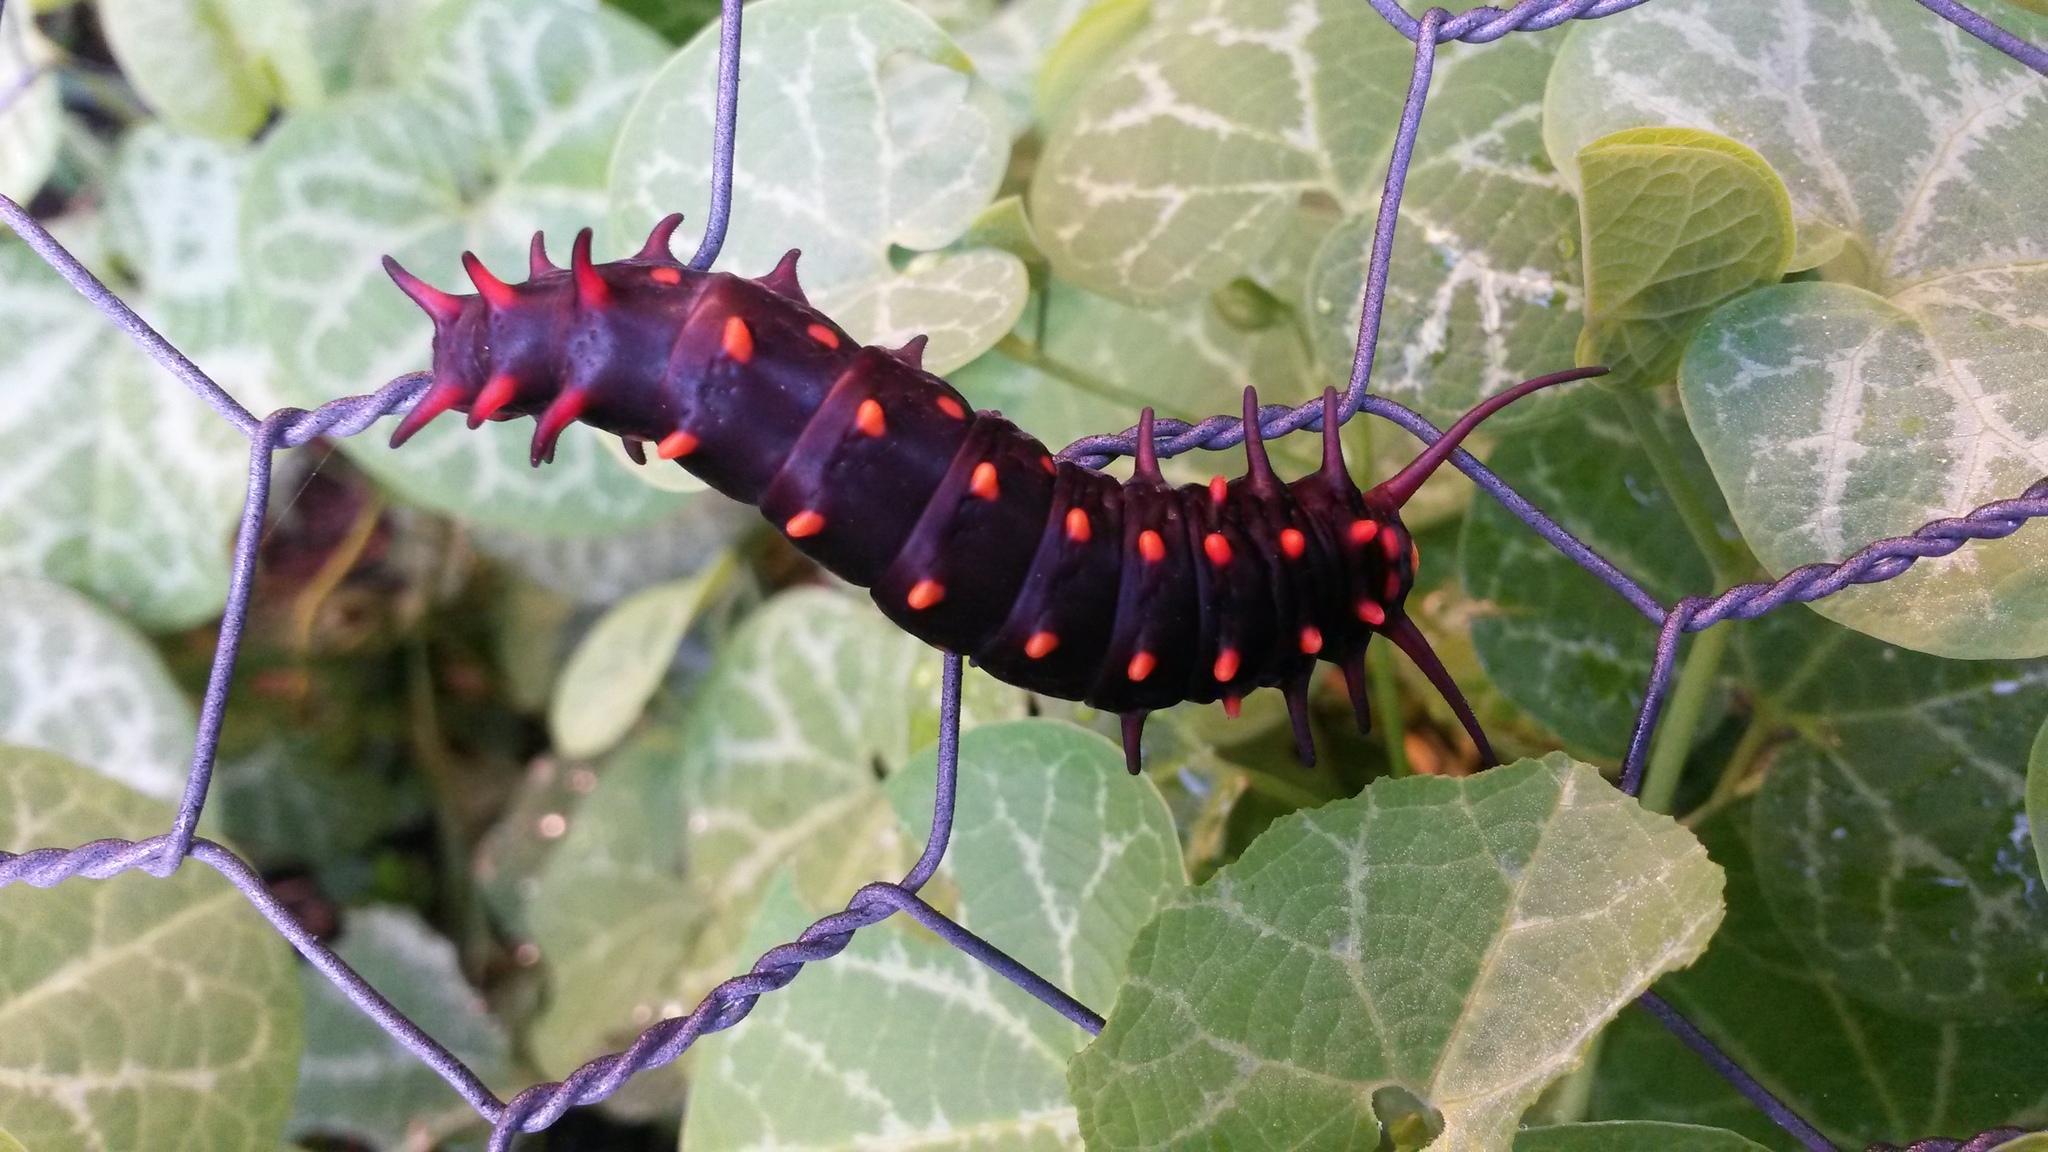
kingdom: Animalia
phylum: Arthropoda
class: Insecta
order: Lepidoptera
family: Papilionidae
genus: Battus
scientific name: Battus philenor
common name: Pipevine swallowtail
